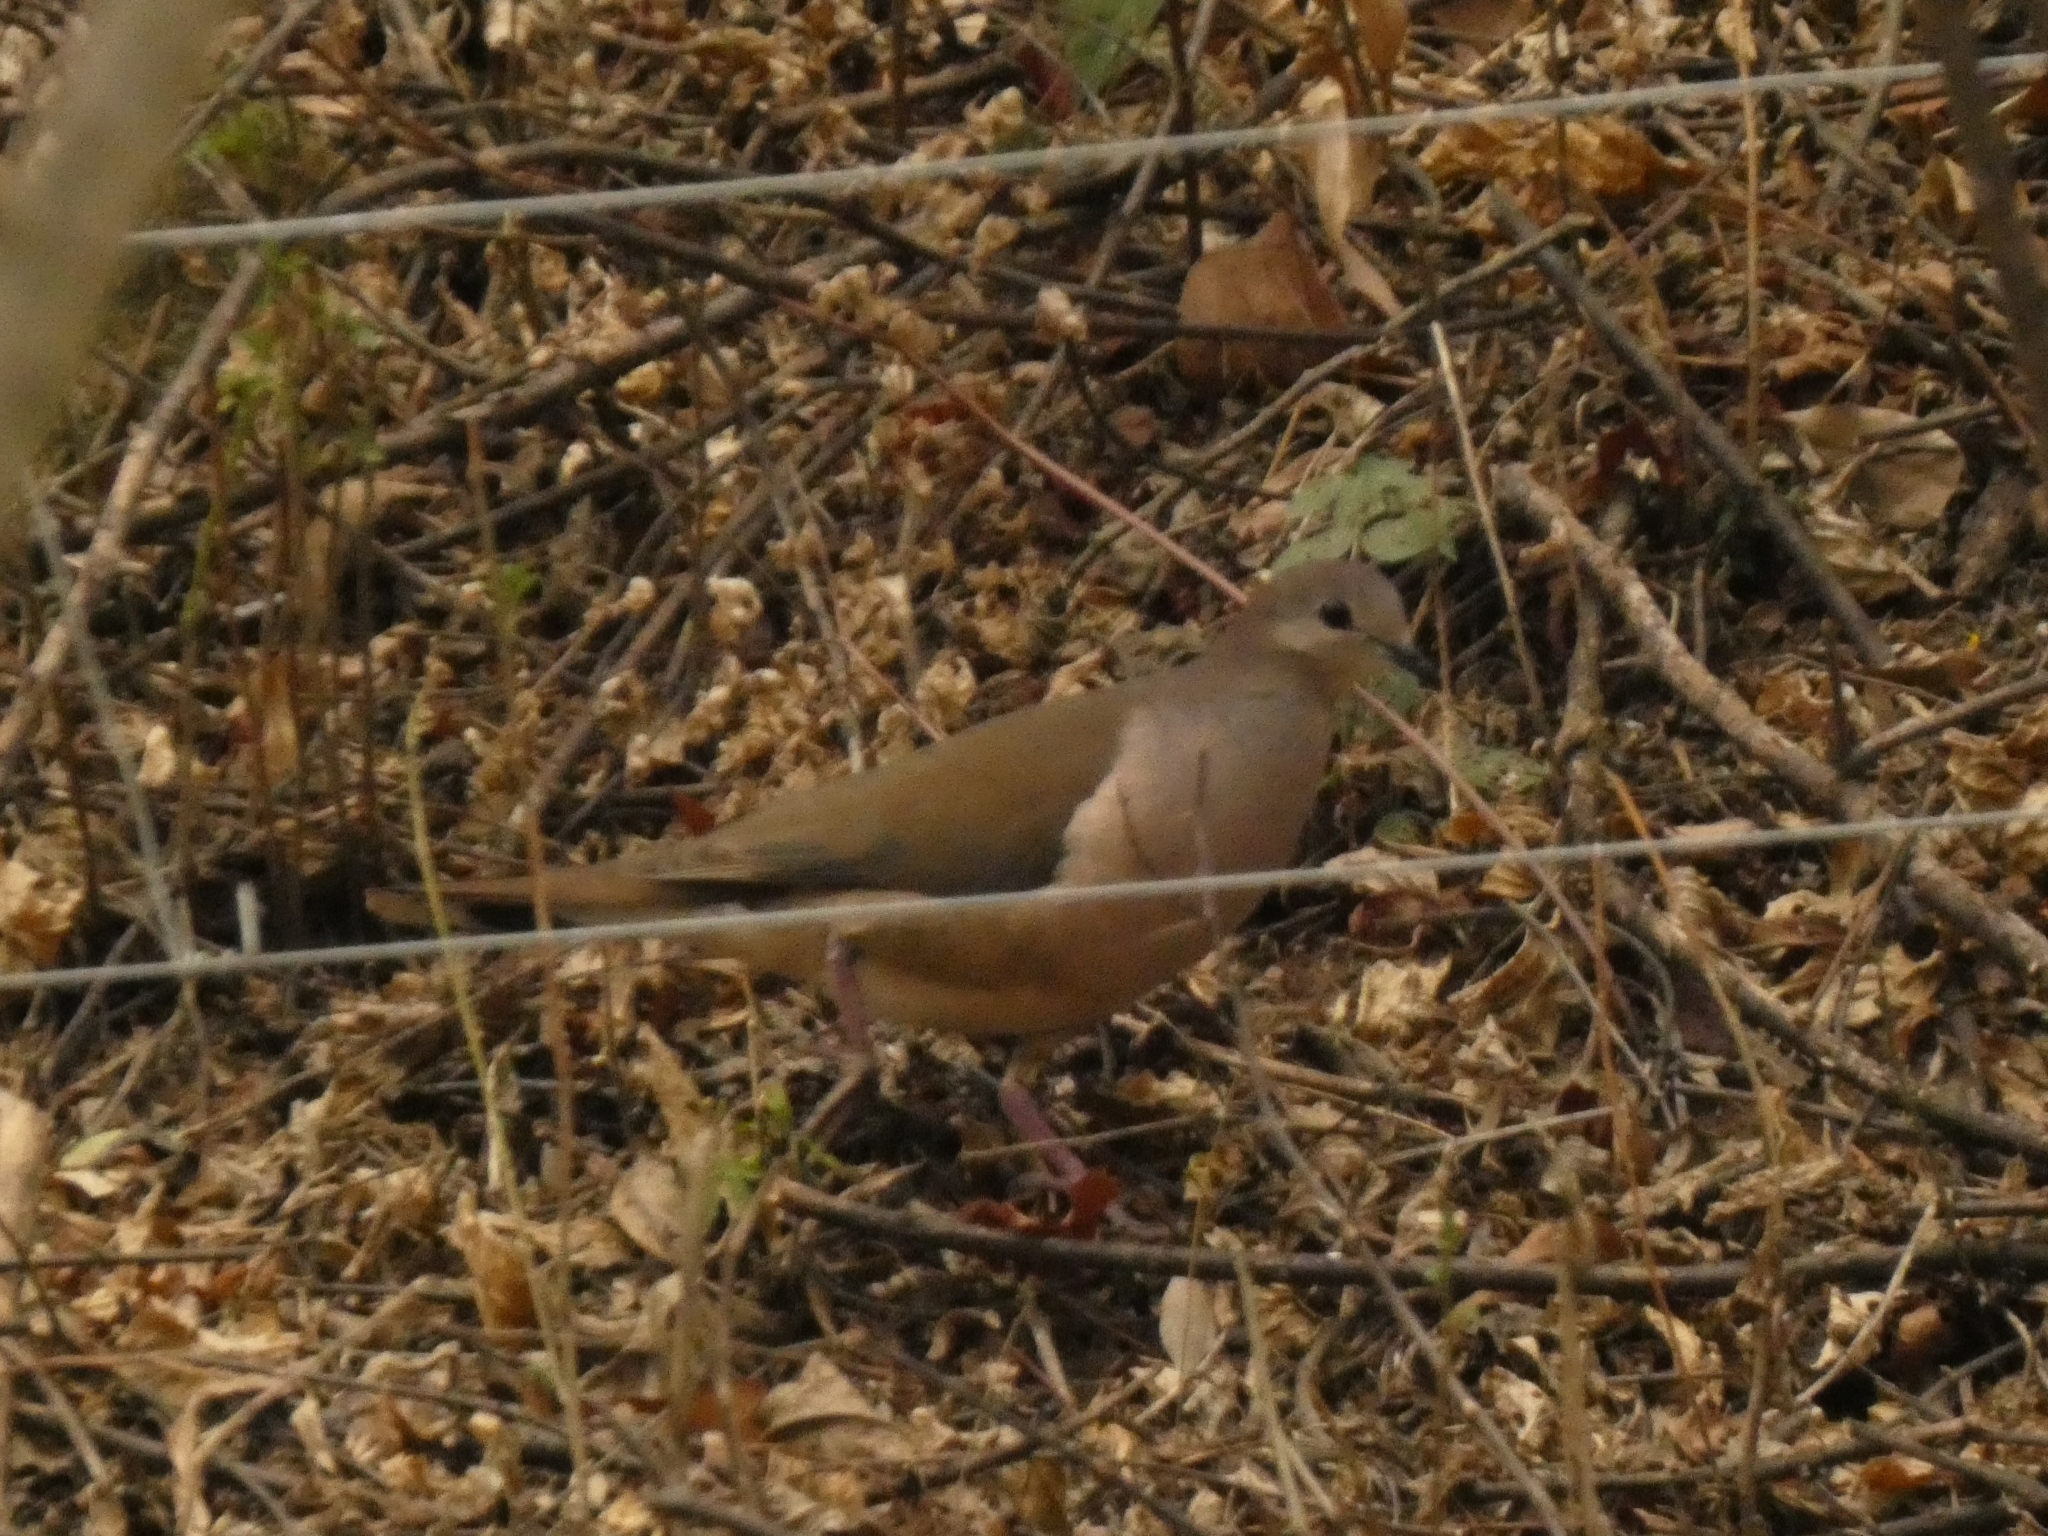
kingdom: Animalia
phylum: Chordata
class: Aves
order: Columbiformes
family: Columbidae
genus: Leptotila
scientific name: Leptotila megalura
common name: Yungas dove
